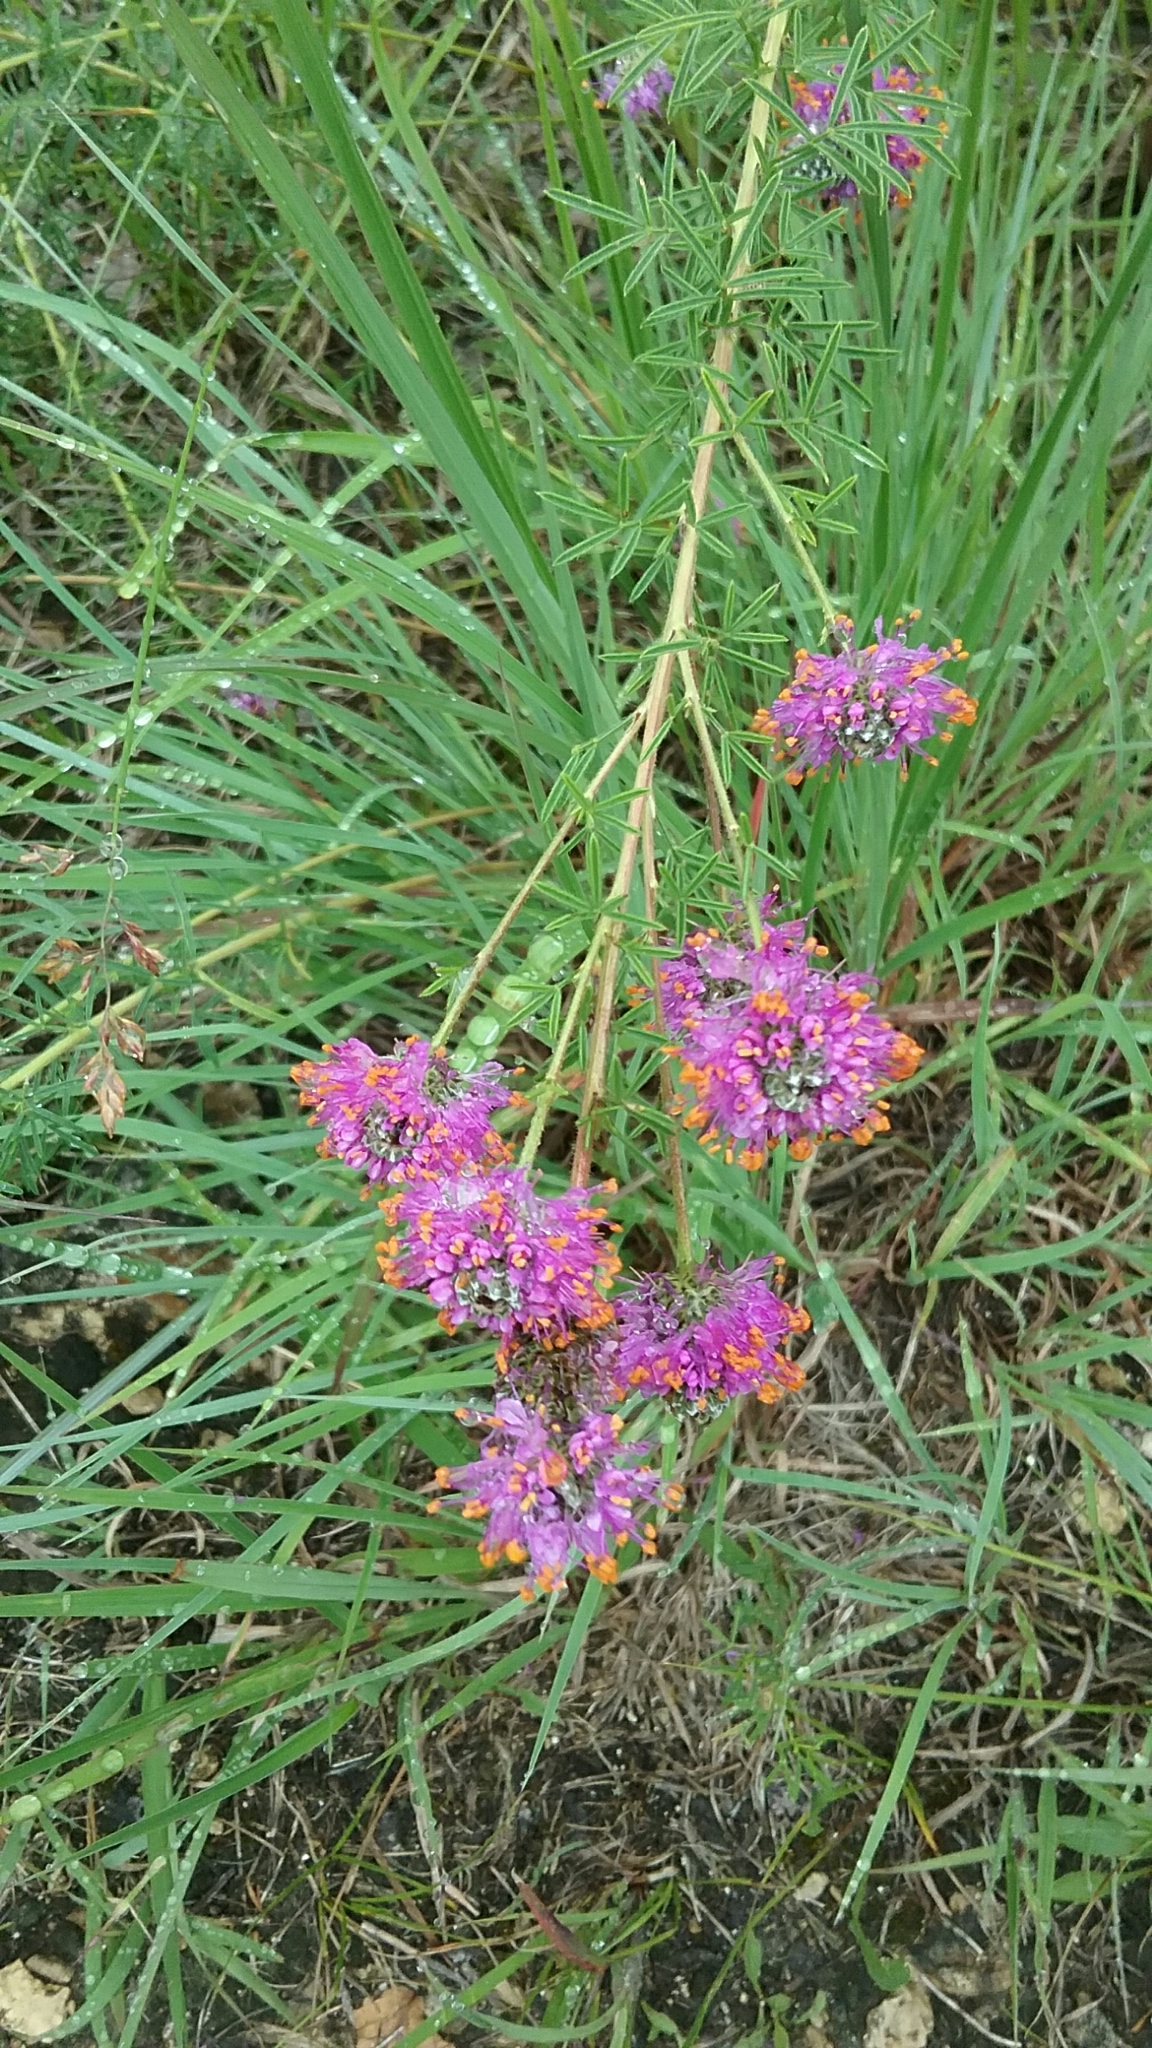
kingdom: Plantae
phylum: Tracheophyta
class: Magnoliopsida
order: Fabales
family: Fabaceae
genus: Dalea
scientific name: Dalea purpurea
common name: Purple prairie-clover
